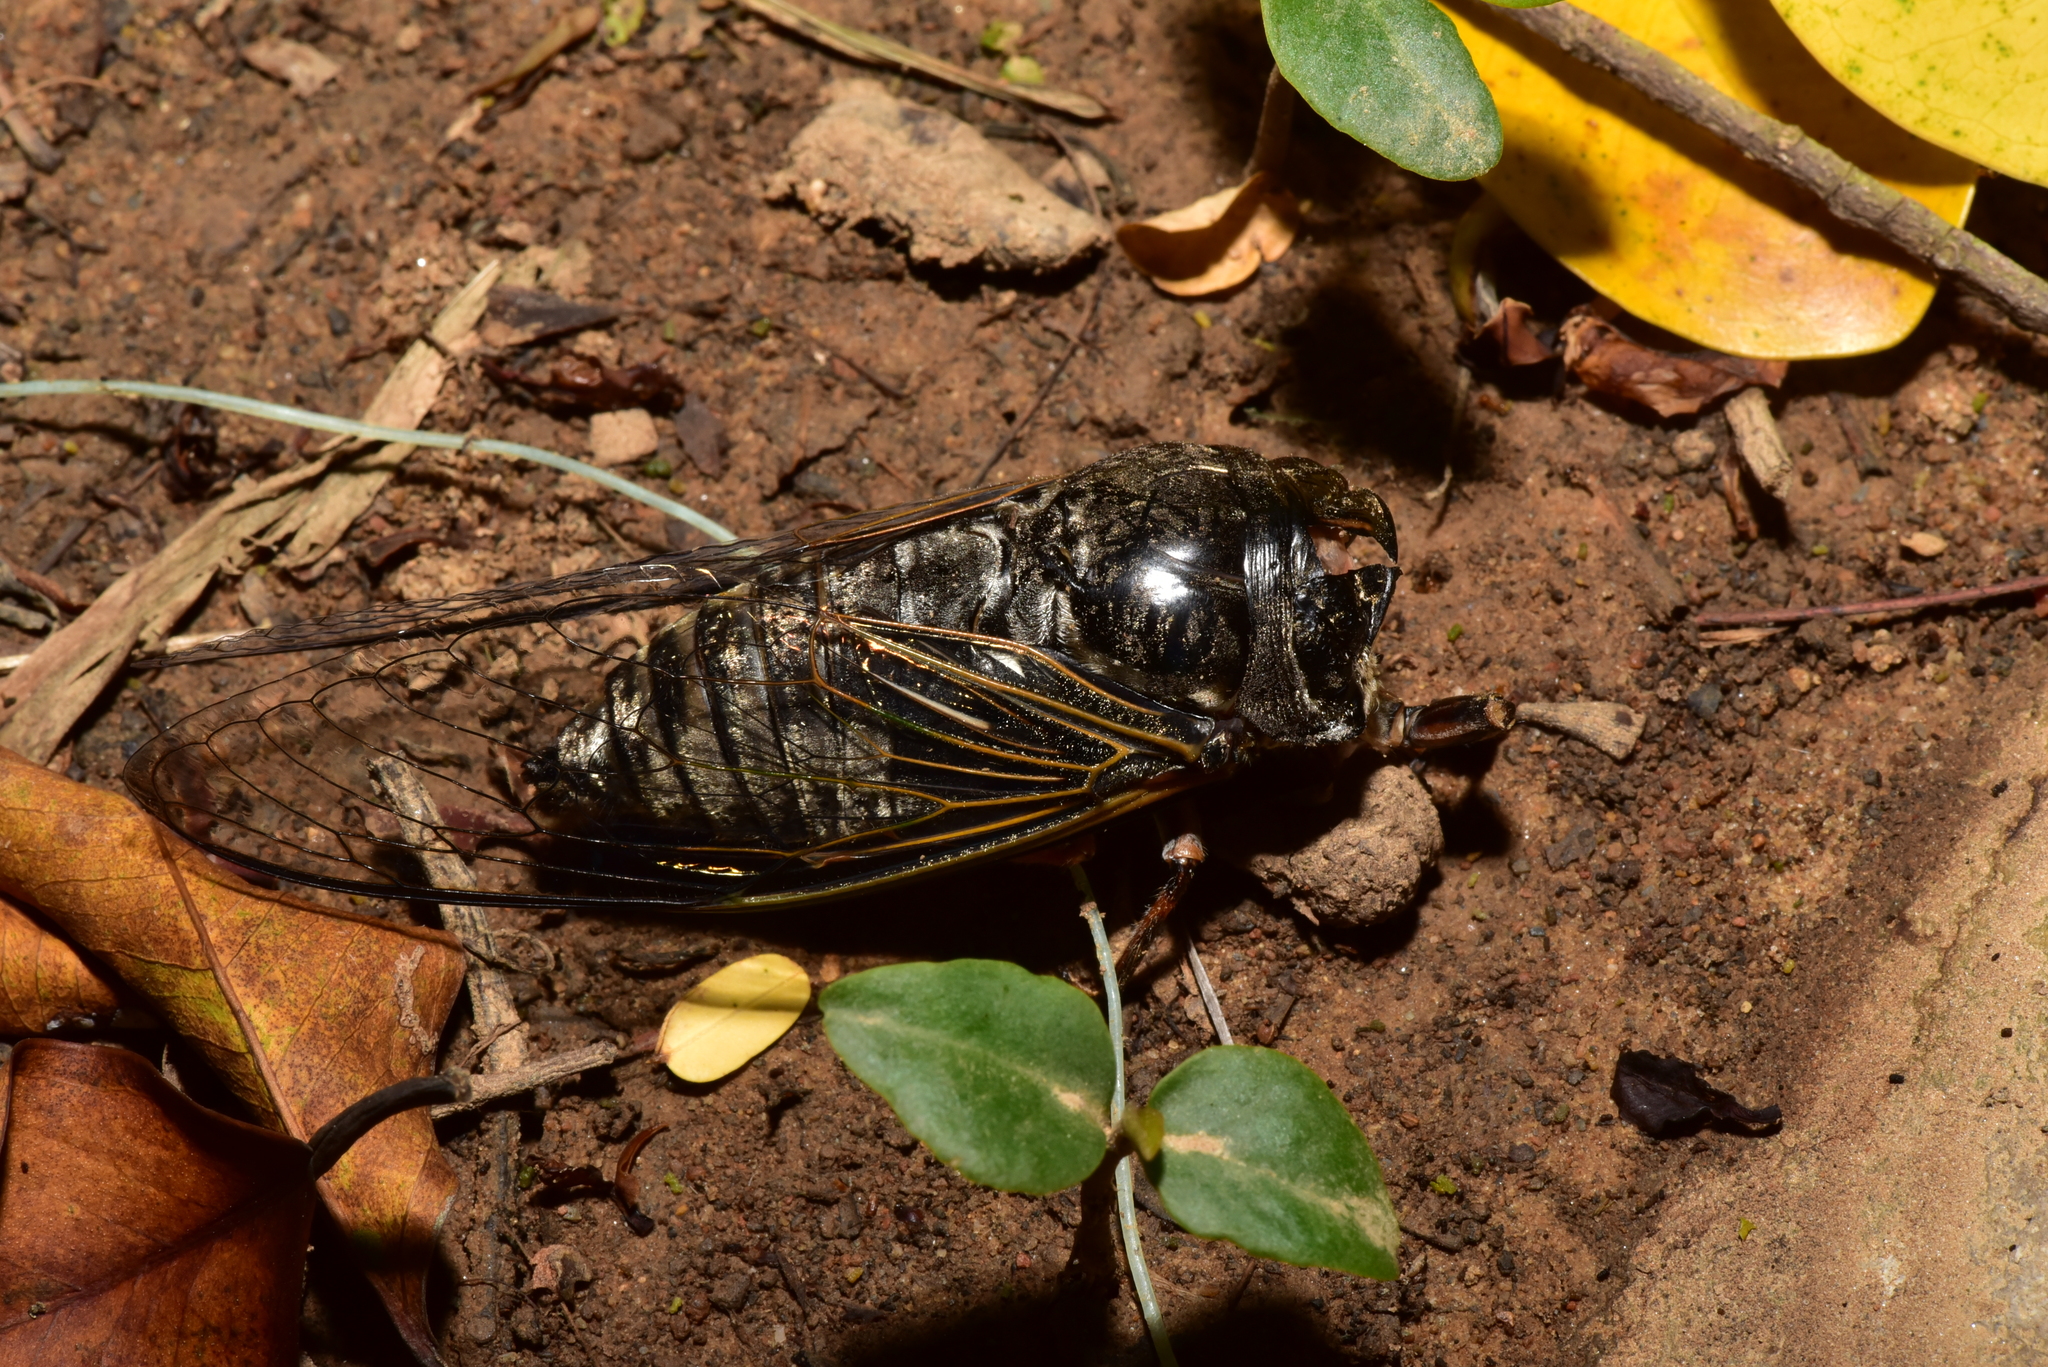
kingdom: Animalia
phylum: Arthropoda
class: Insecta
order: Hemiptera
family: Cicadidae
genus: Cryptotympana
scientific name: Cryptotympana takasagona
